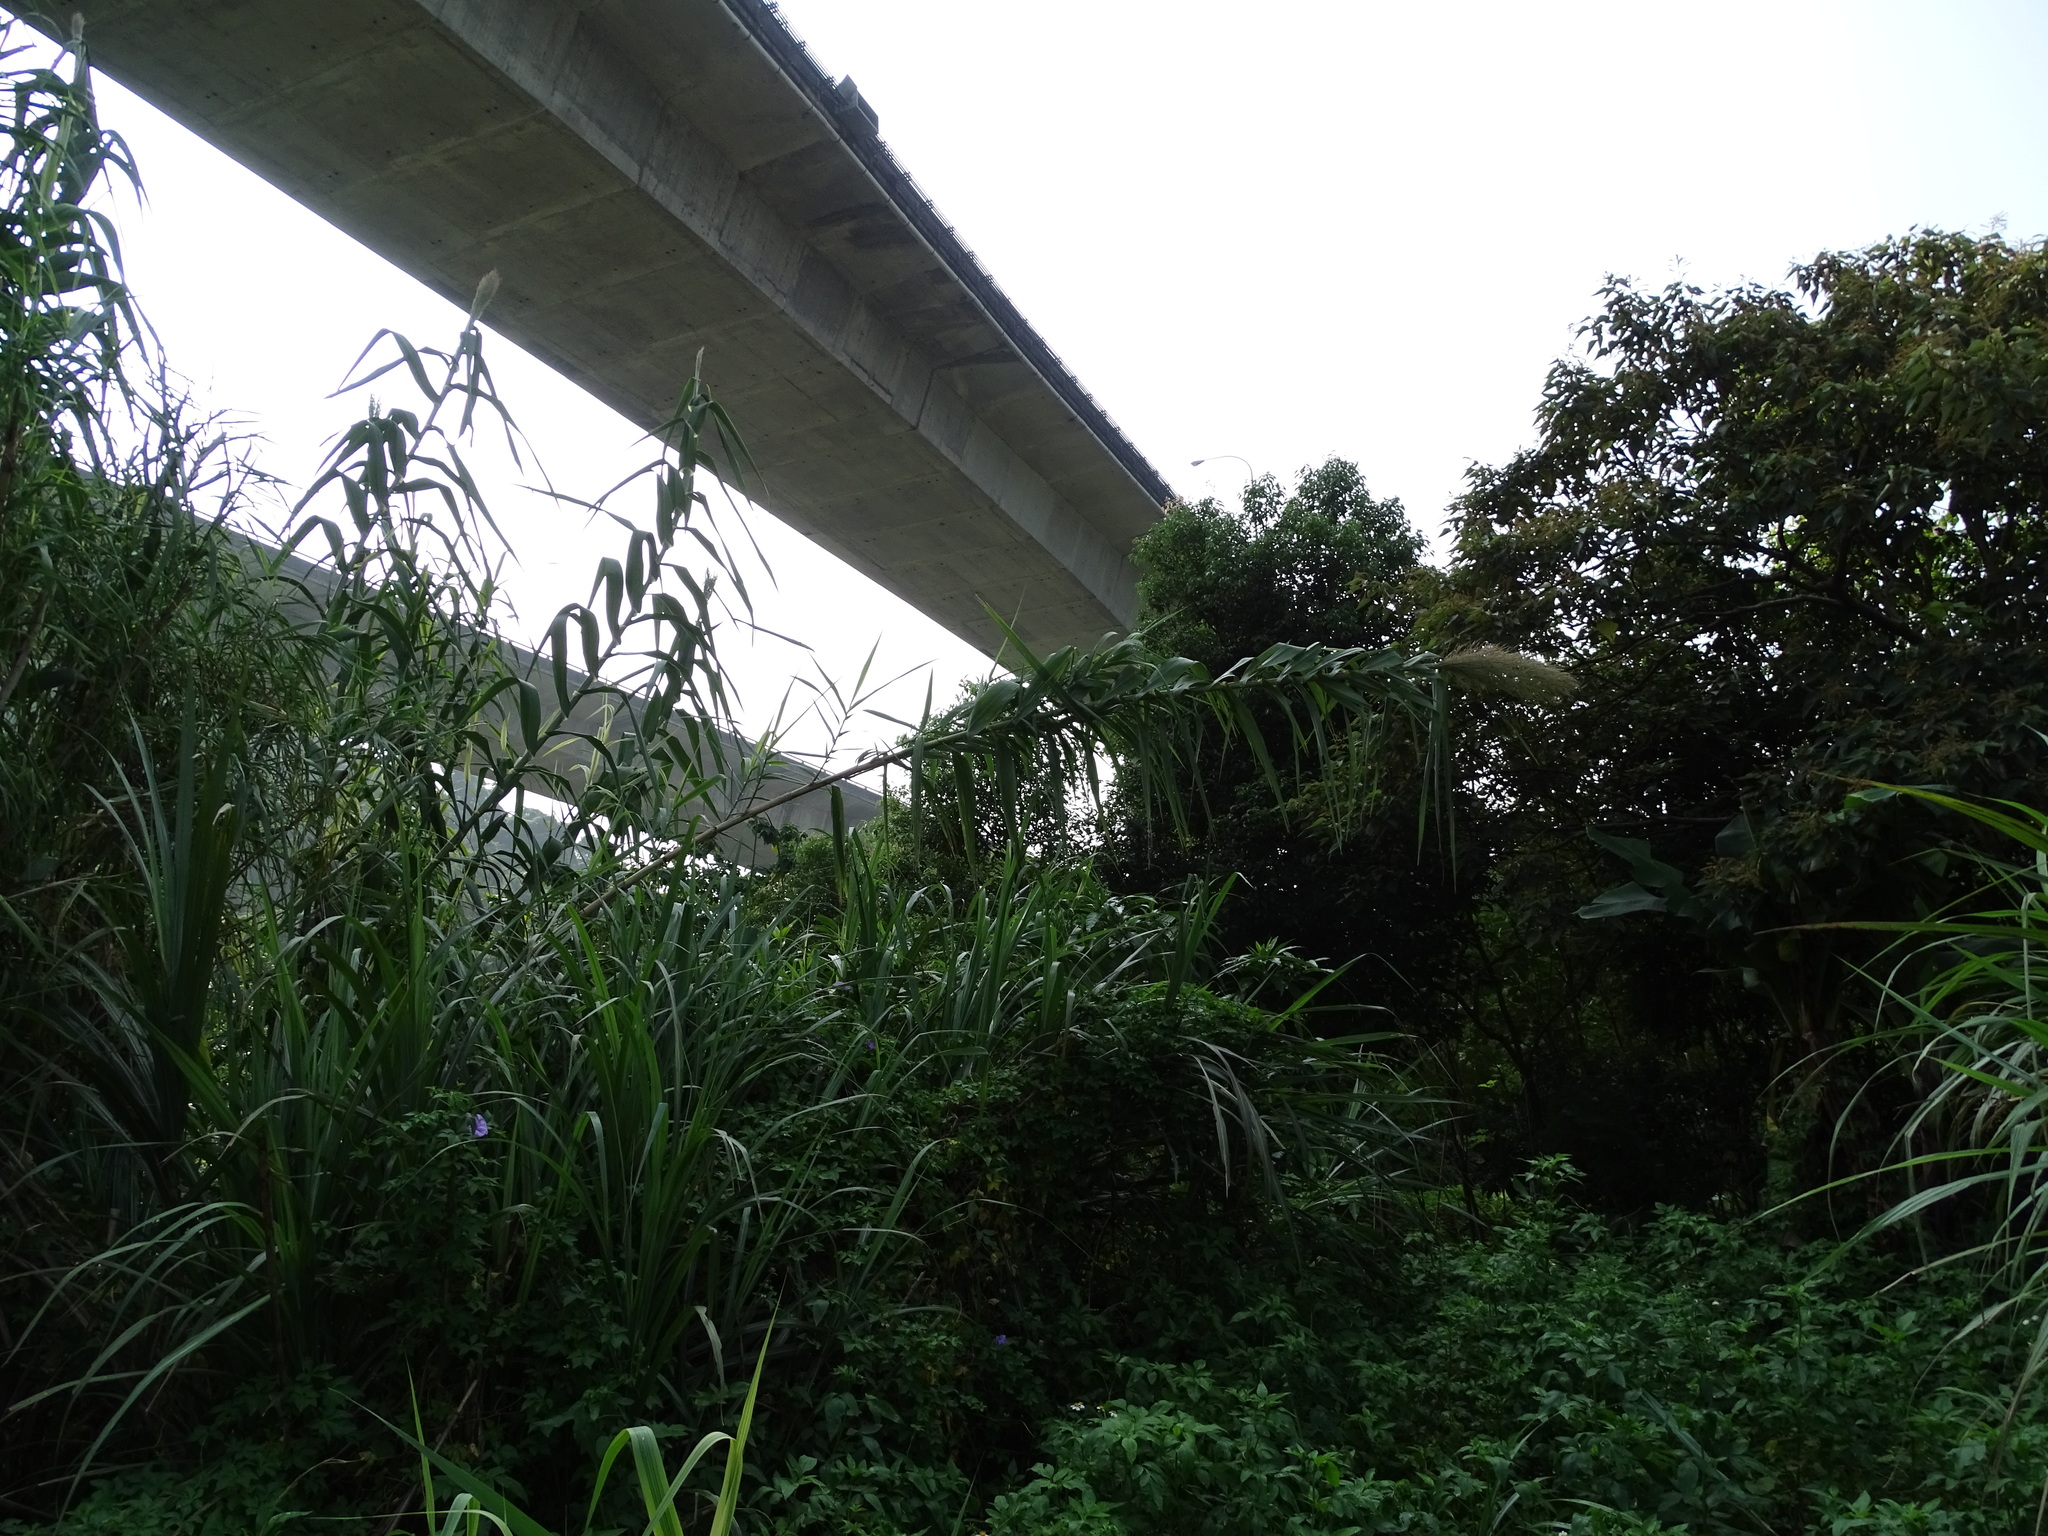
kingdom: Plantae
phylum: Tracheophyta
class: Liliopsida
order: Poales
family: Poaceae
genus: Arundo
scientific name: Arundo donax
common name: Giant reed
